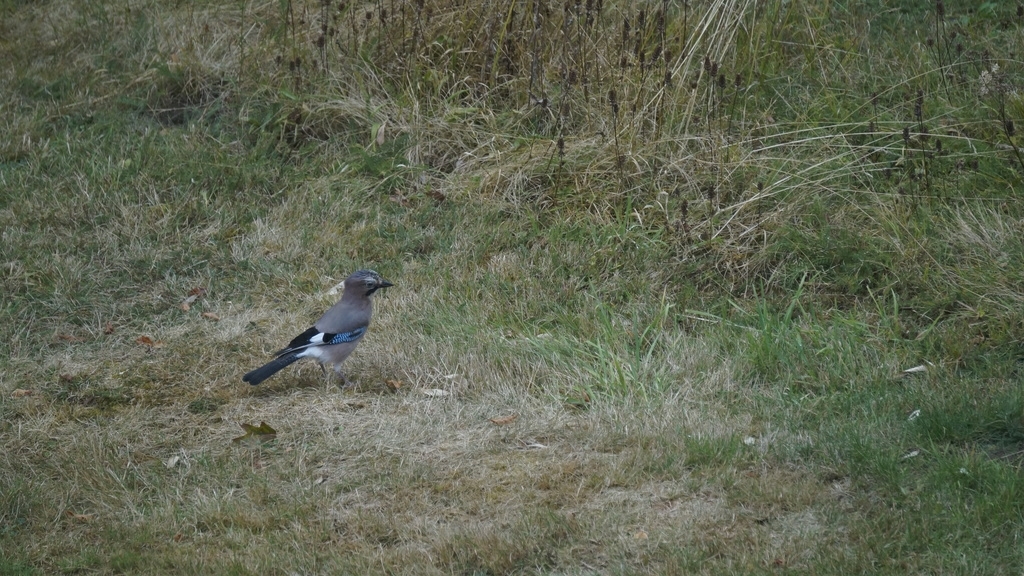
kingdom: Animalia
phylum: Chordata
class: Aves
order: Passeriformes
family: Corvidae
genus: Garrulus
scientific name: Garrulus glandarius
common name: Eurasian jay
